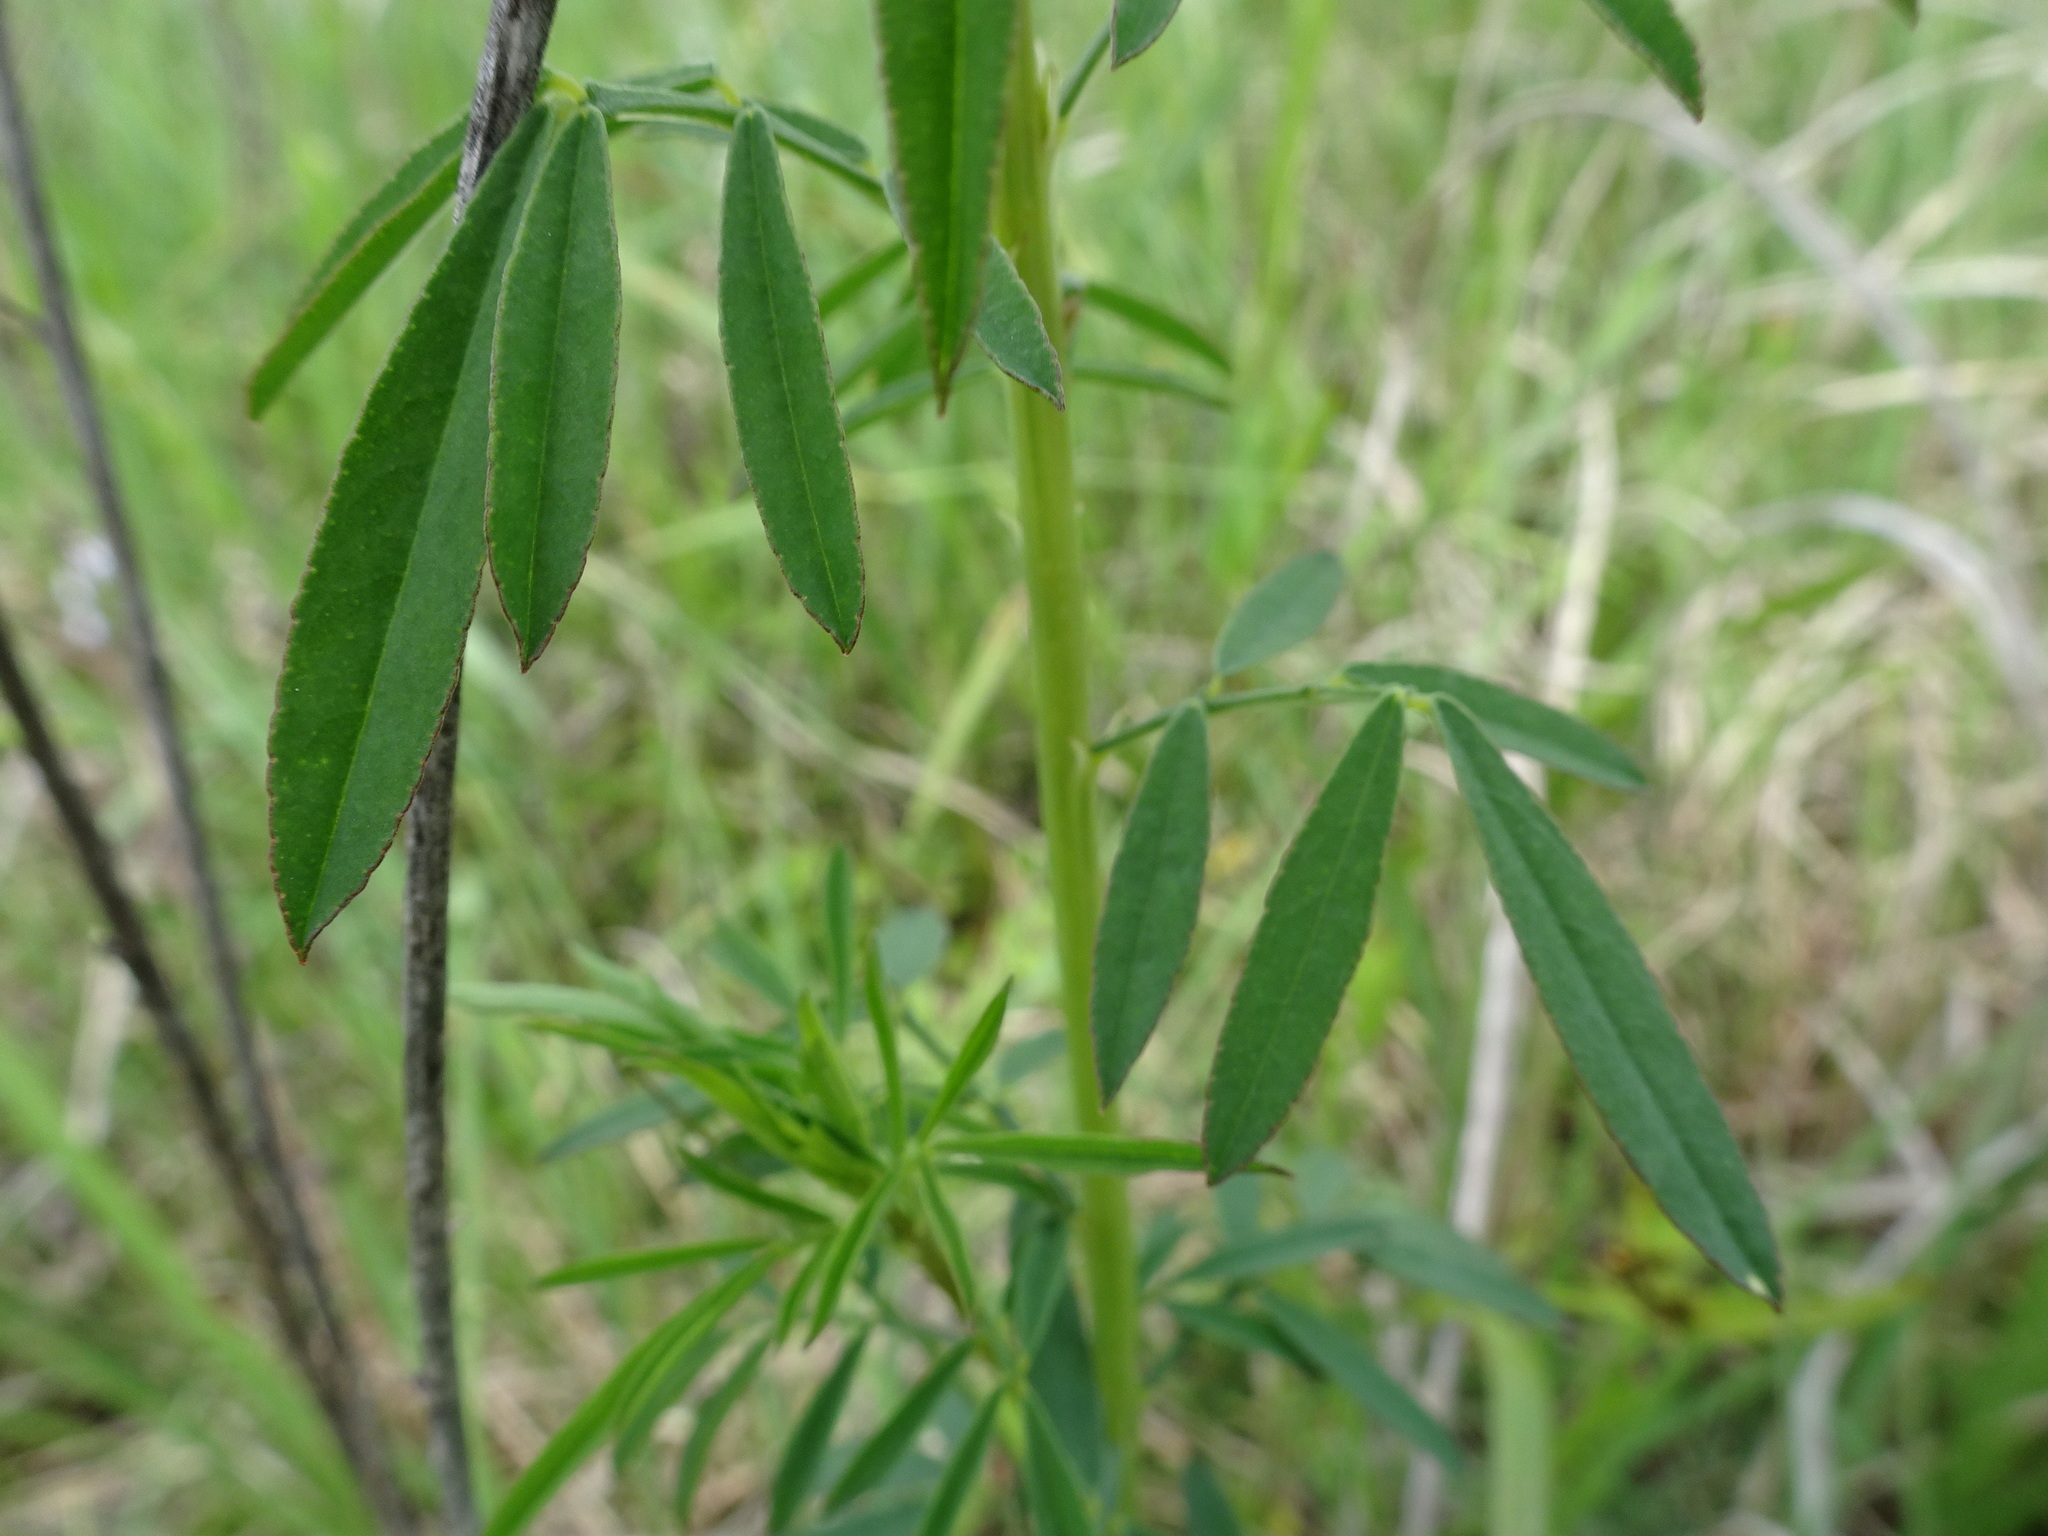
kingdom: Plantae
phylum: Tracheophyta
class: Magnoliopsida
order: Fabales
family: Fabaceae
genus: Dalea
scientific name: Dalea candida
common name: White prairie-clover
